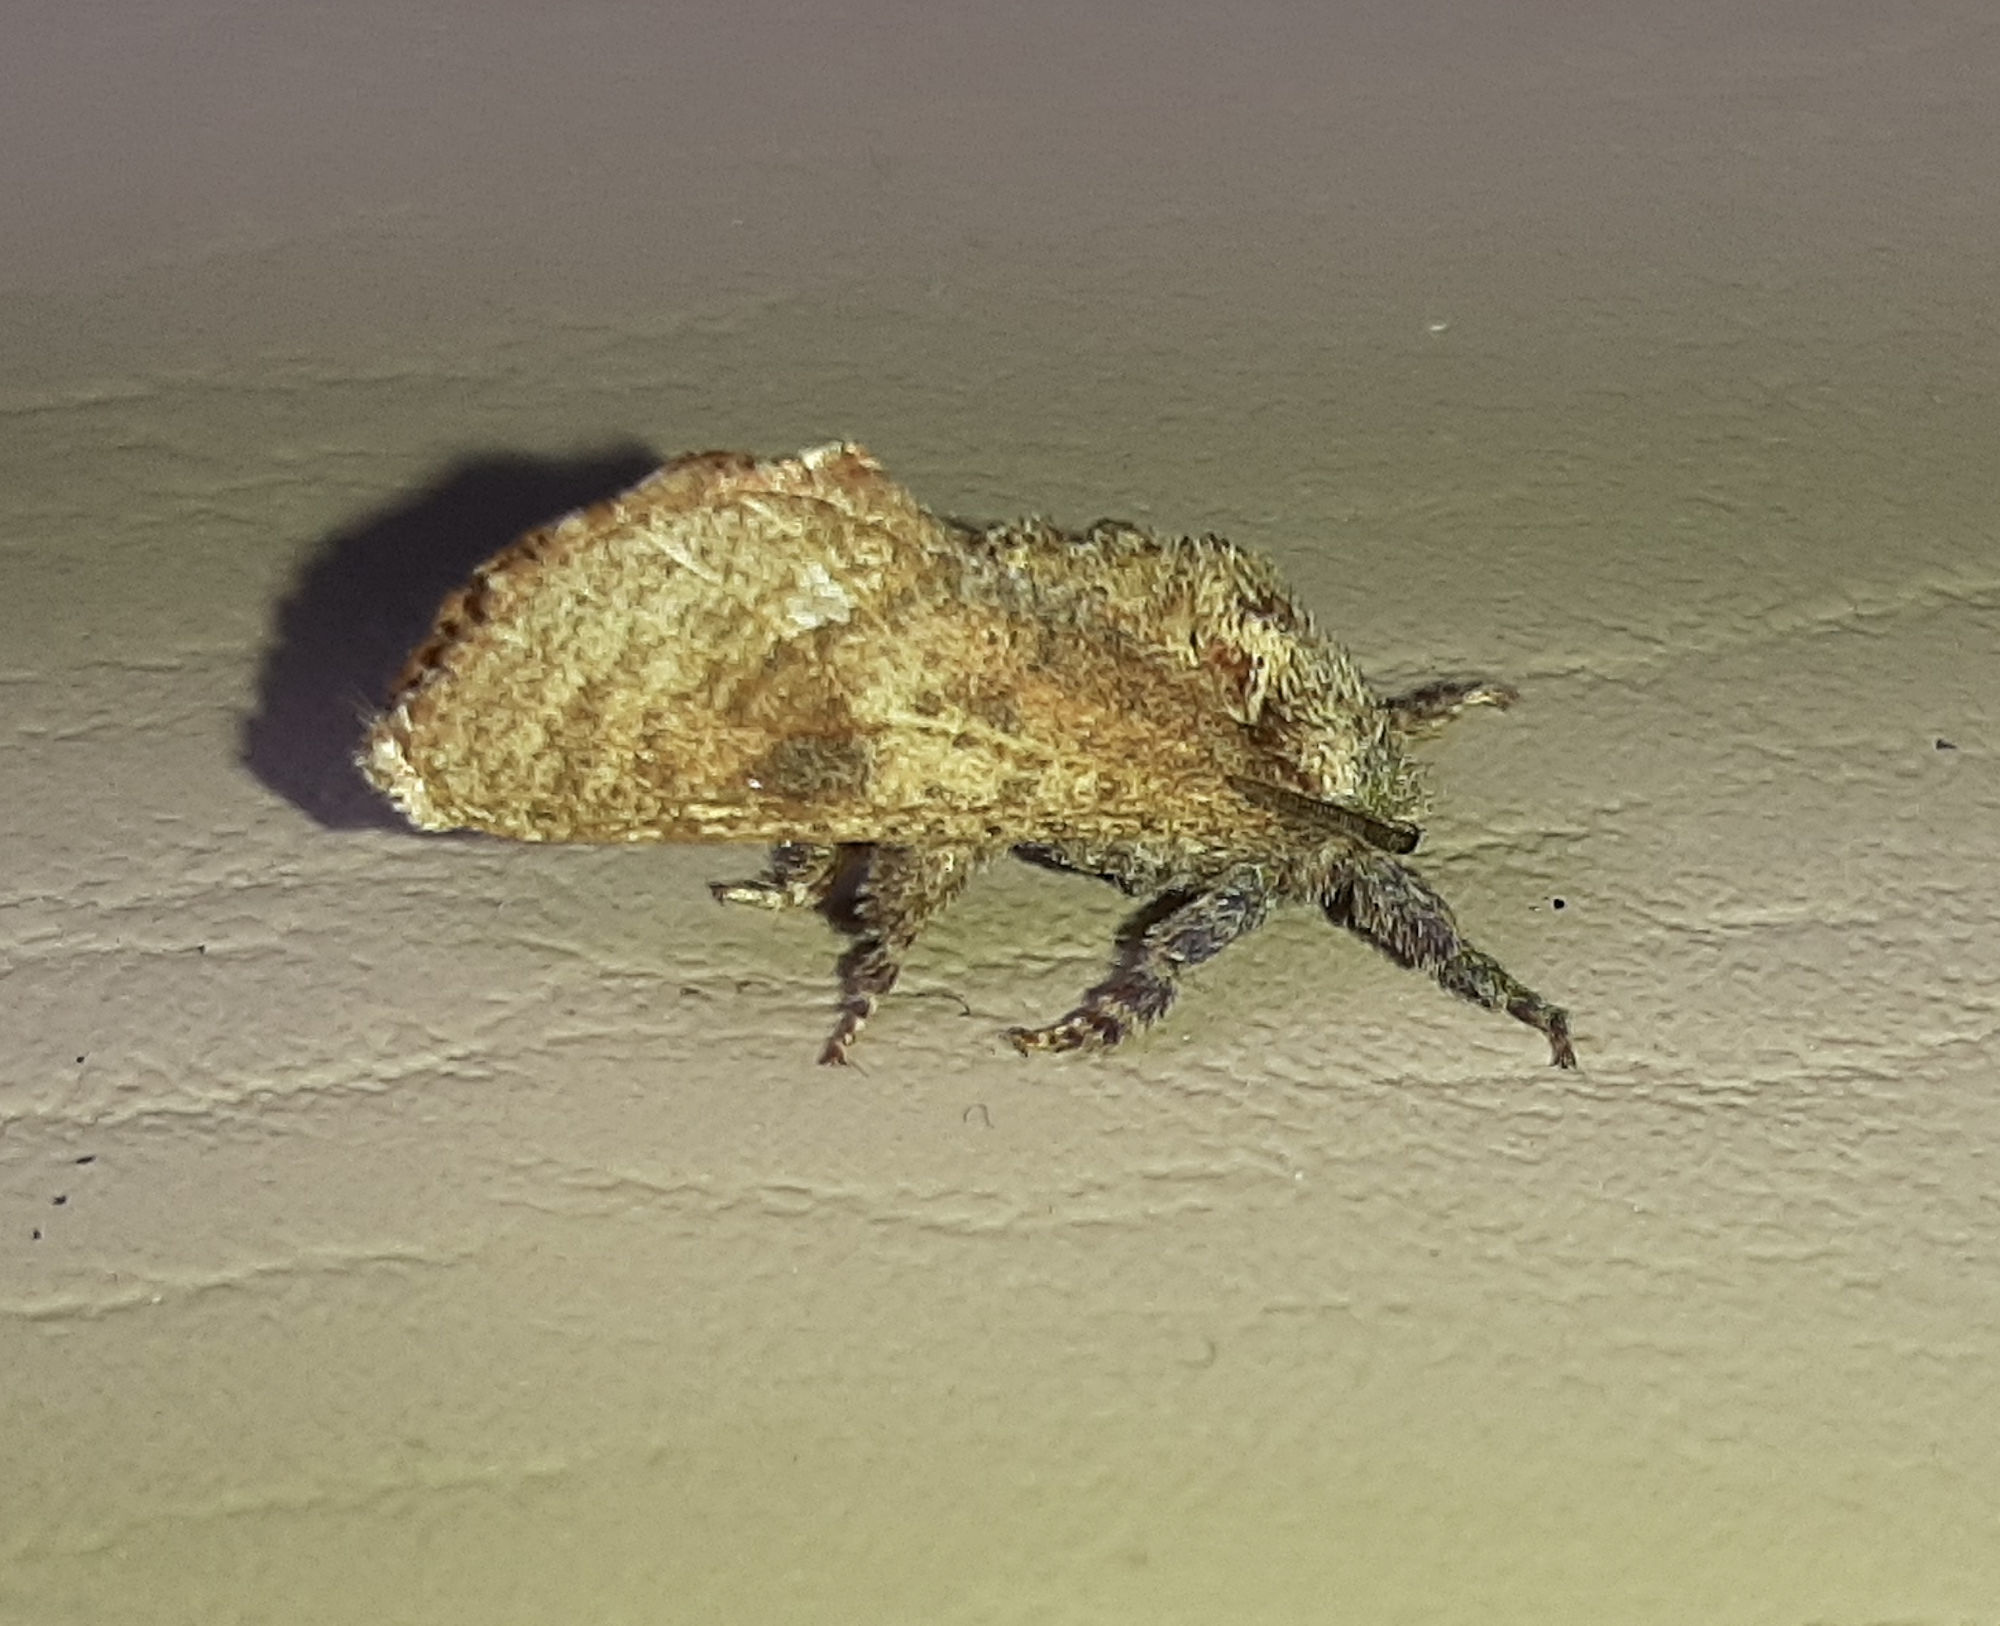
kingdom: Animalia
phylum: Arthropoda
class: Insecta
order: Lepidoptera
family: Cossidae
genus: Givira
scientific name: Givira arbeloides
